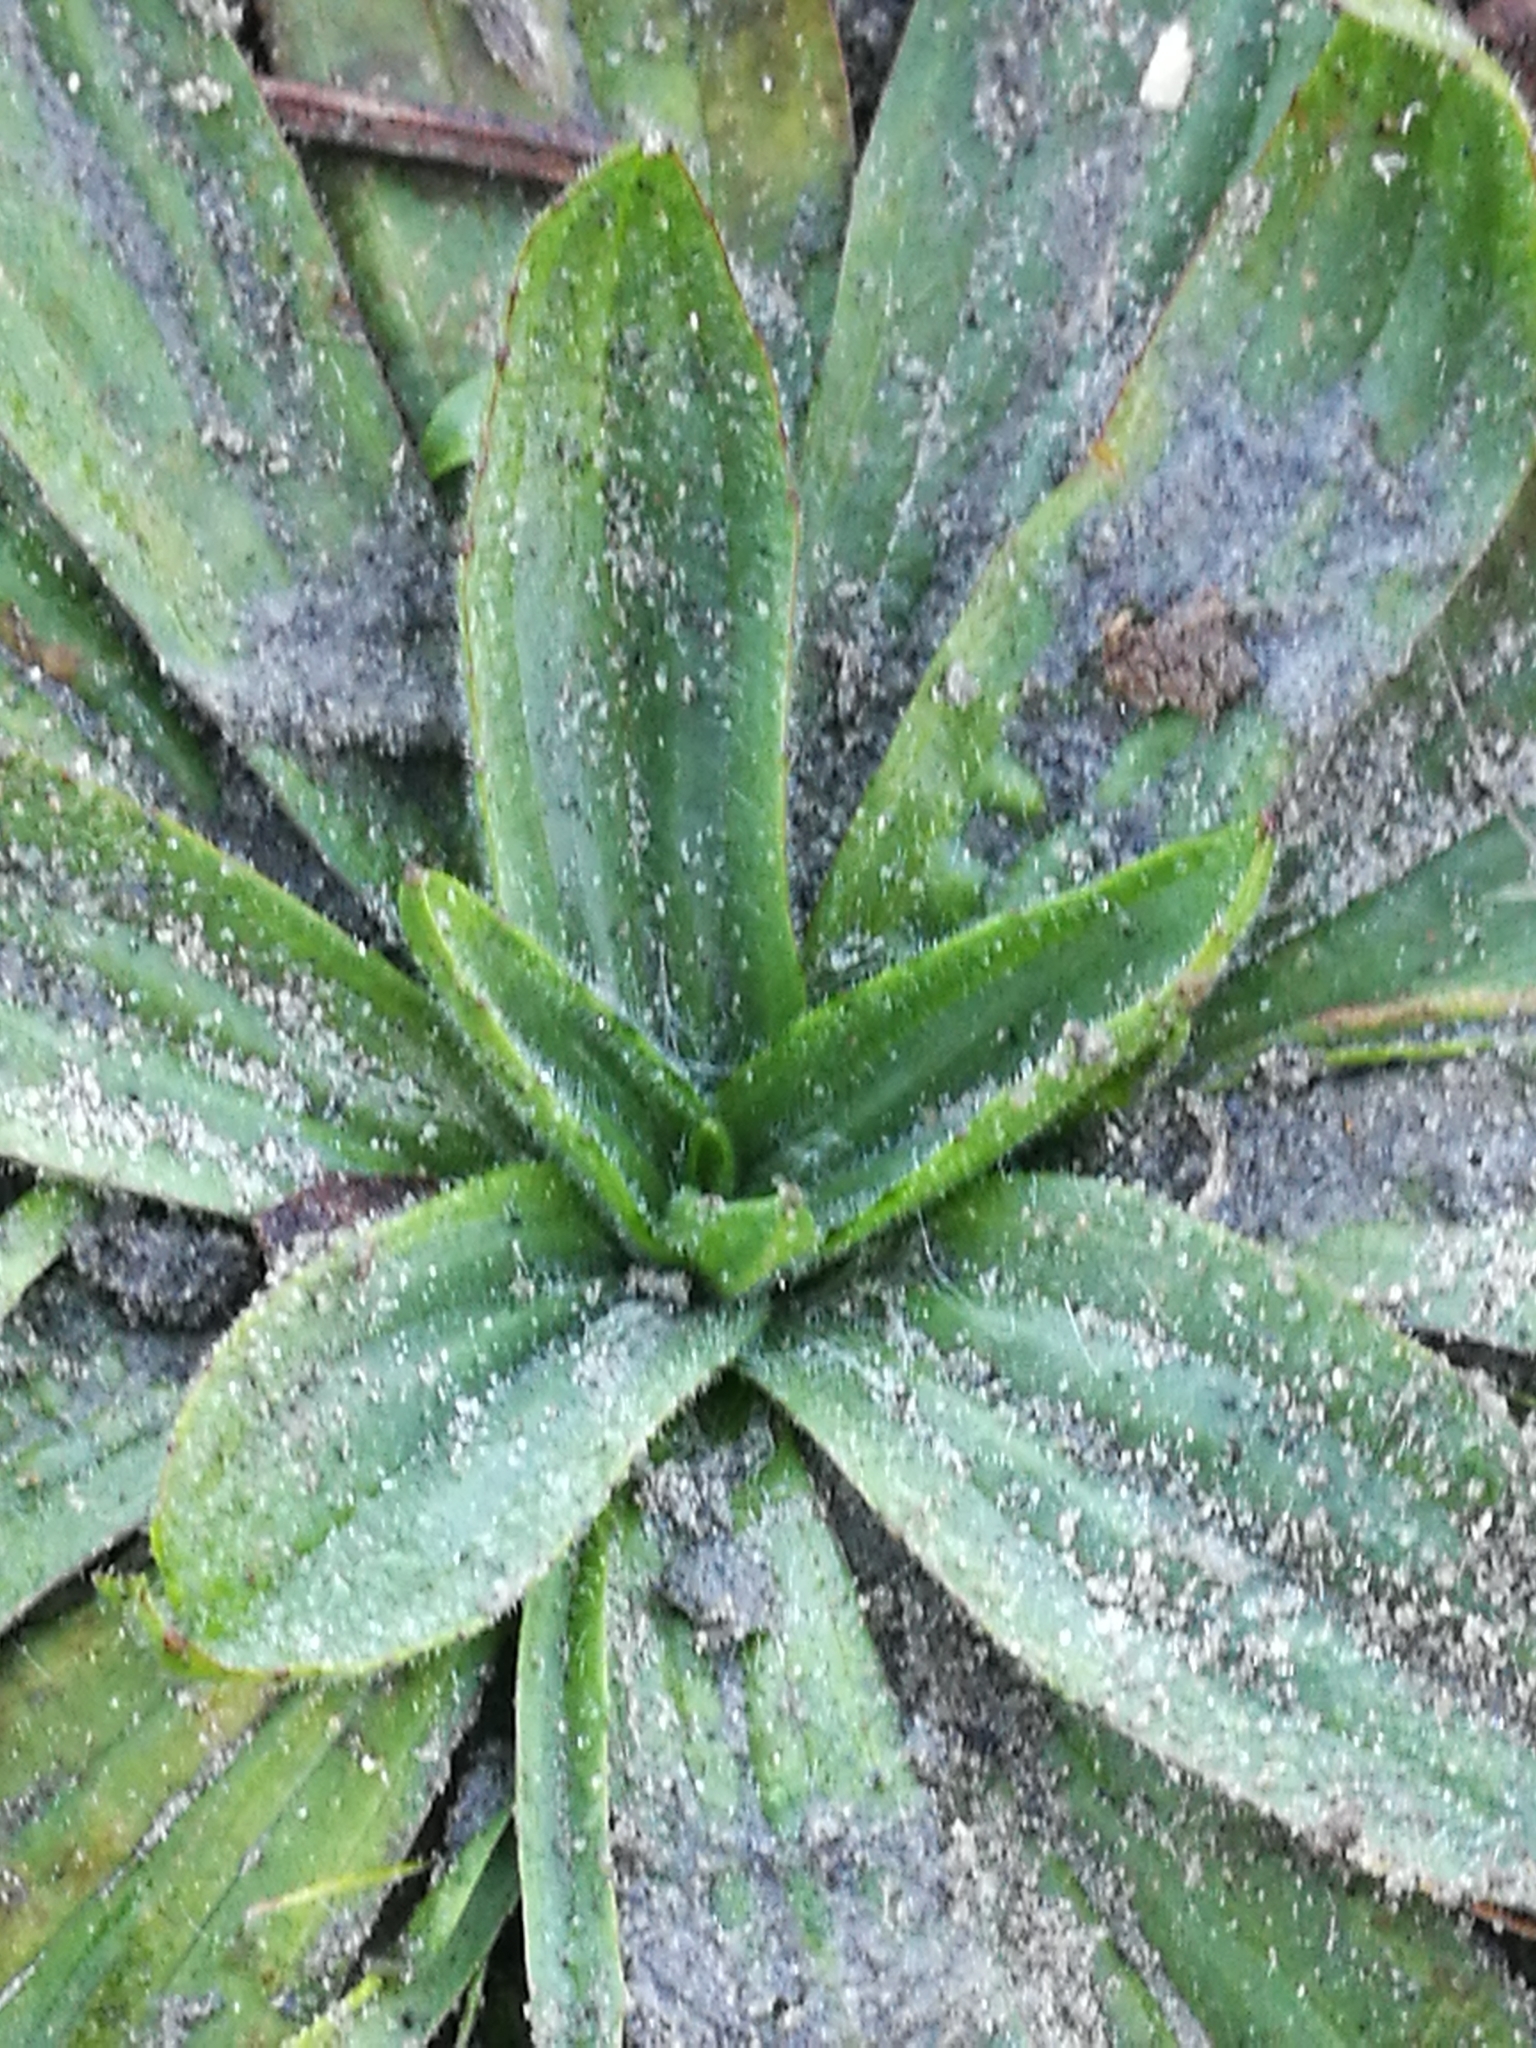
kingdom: Plantae
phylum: Tracheophyta
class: Magnoliopsida
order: Lamiales
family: Plantaginaceae
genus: Plantago
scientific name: Plantago lanceolata
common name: Ribwort plantain
